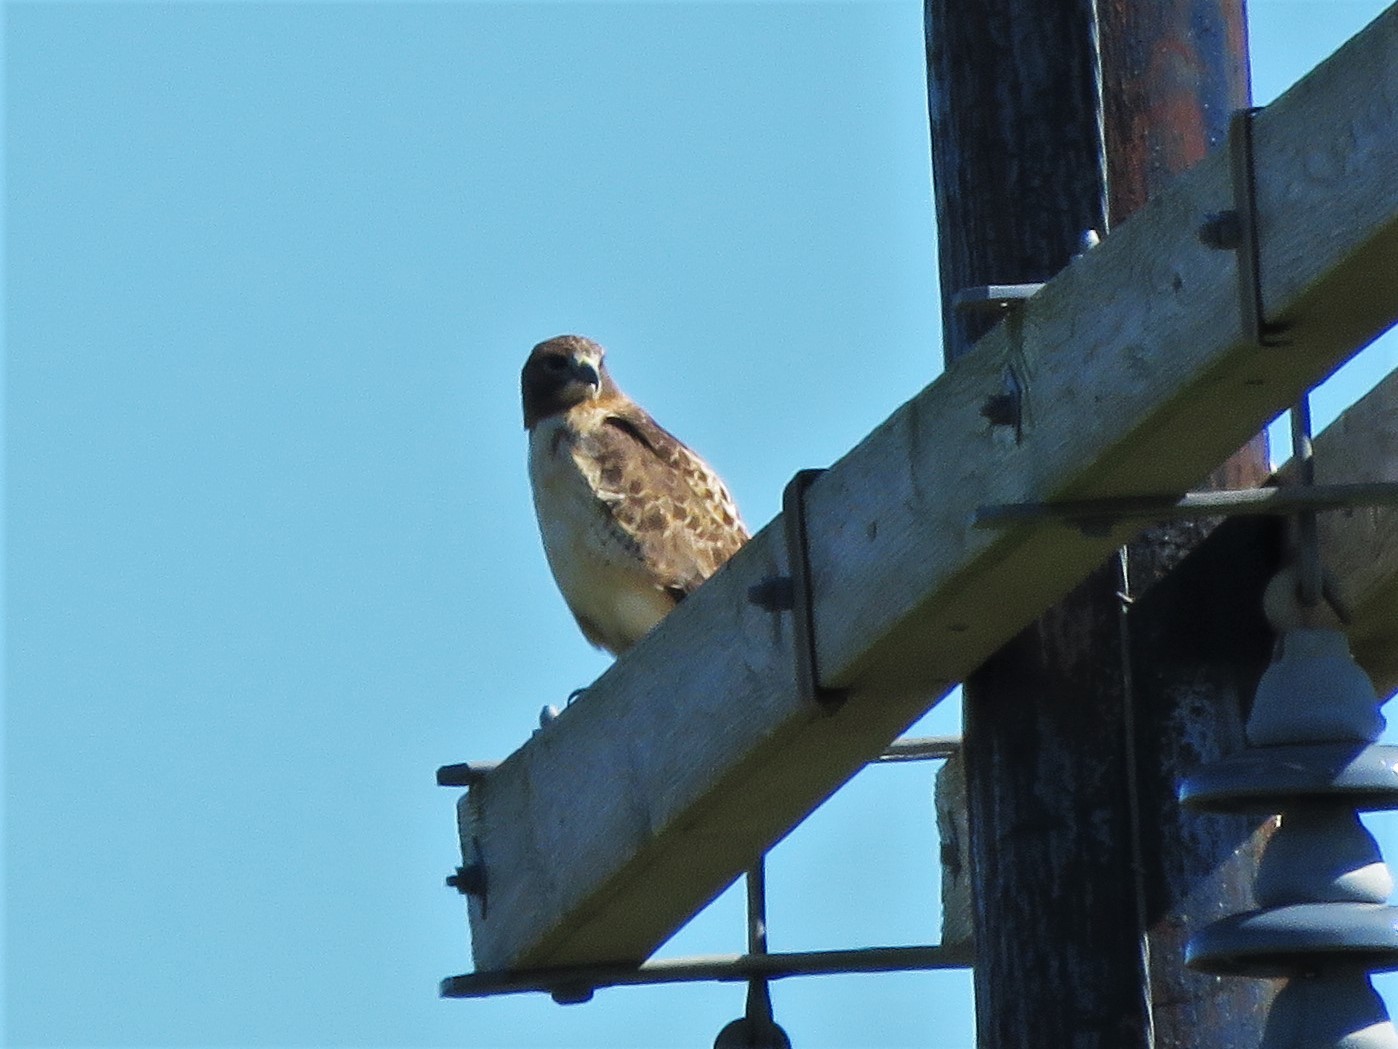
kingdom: Animalia
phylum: Chordata
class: Aves
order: Accipitriformes
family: Accipitridae
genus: Buteo
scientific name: Buteo jamaicensis
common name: Red-tailed hawk
